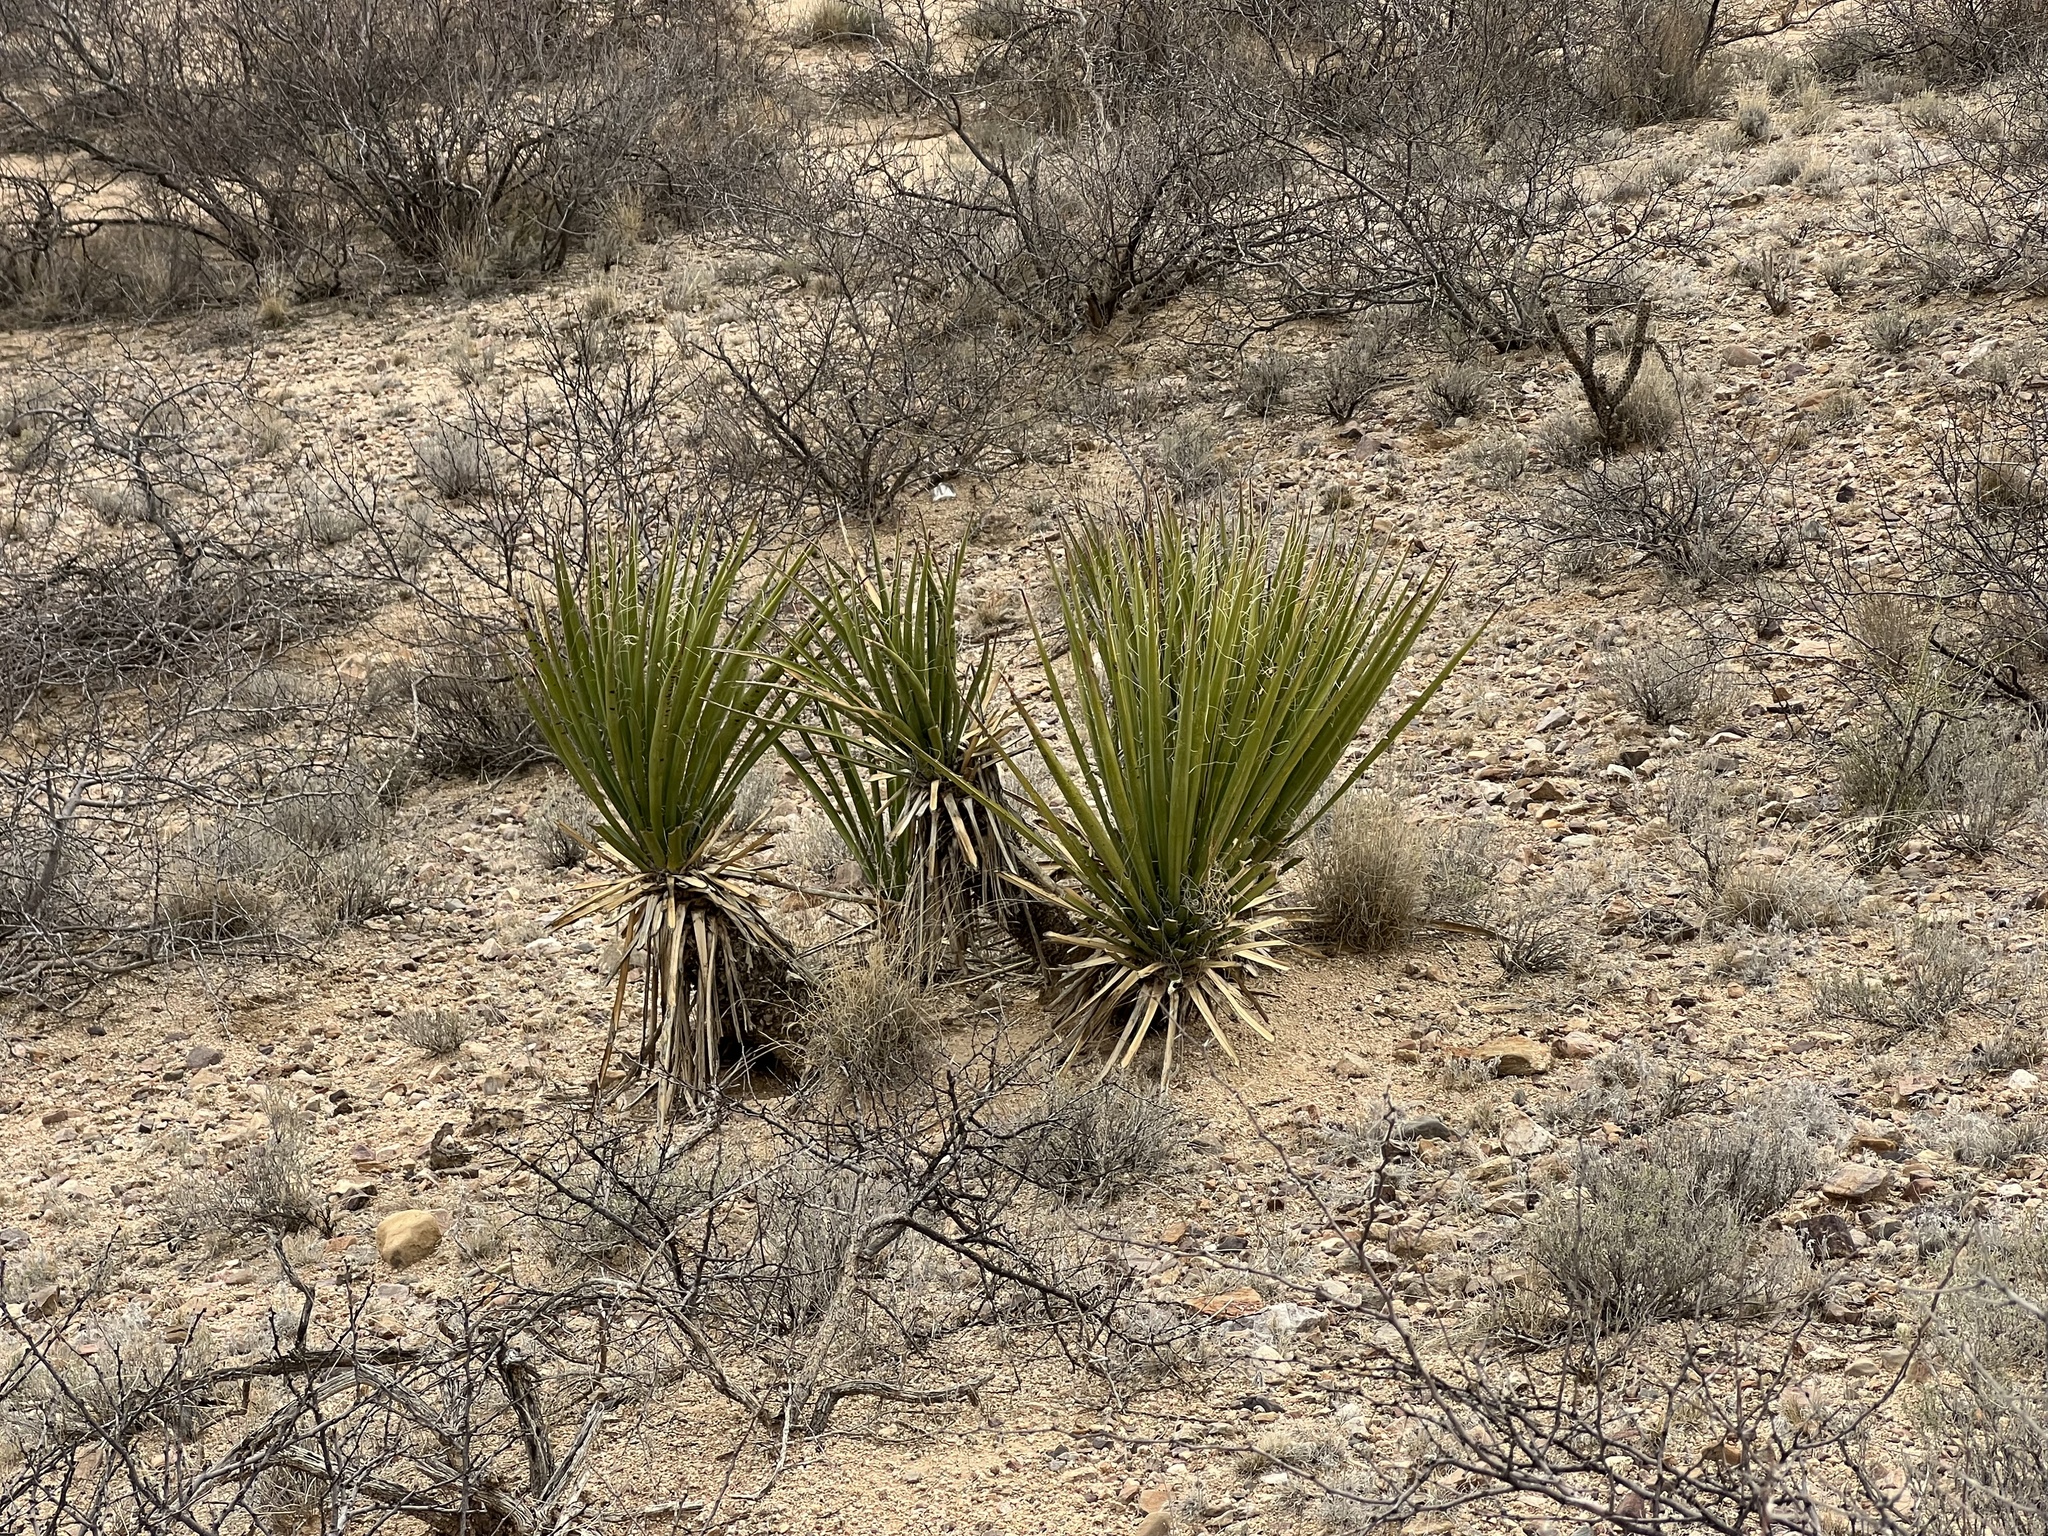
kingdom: Plantae
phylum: Tracheophyta
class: Liliopsida
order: Asparagales
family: Asparagaceae
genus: Yucca
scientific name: Yucca baccata
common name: Banana yucca
